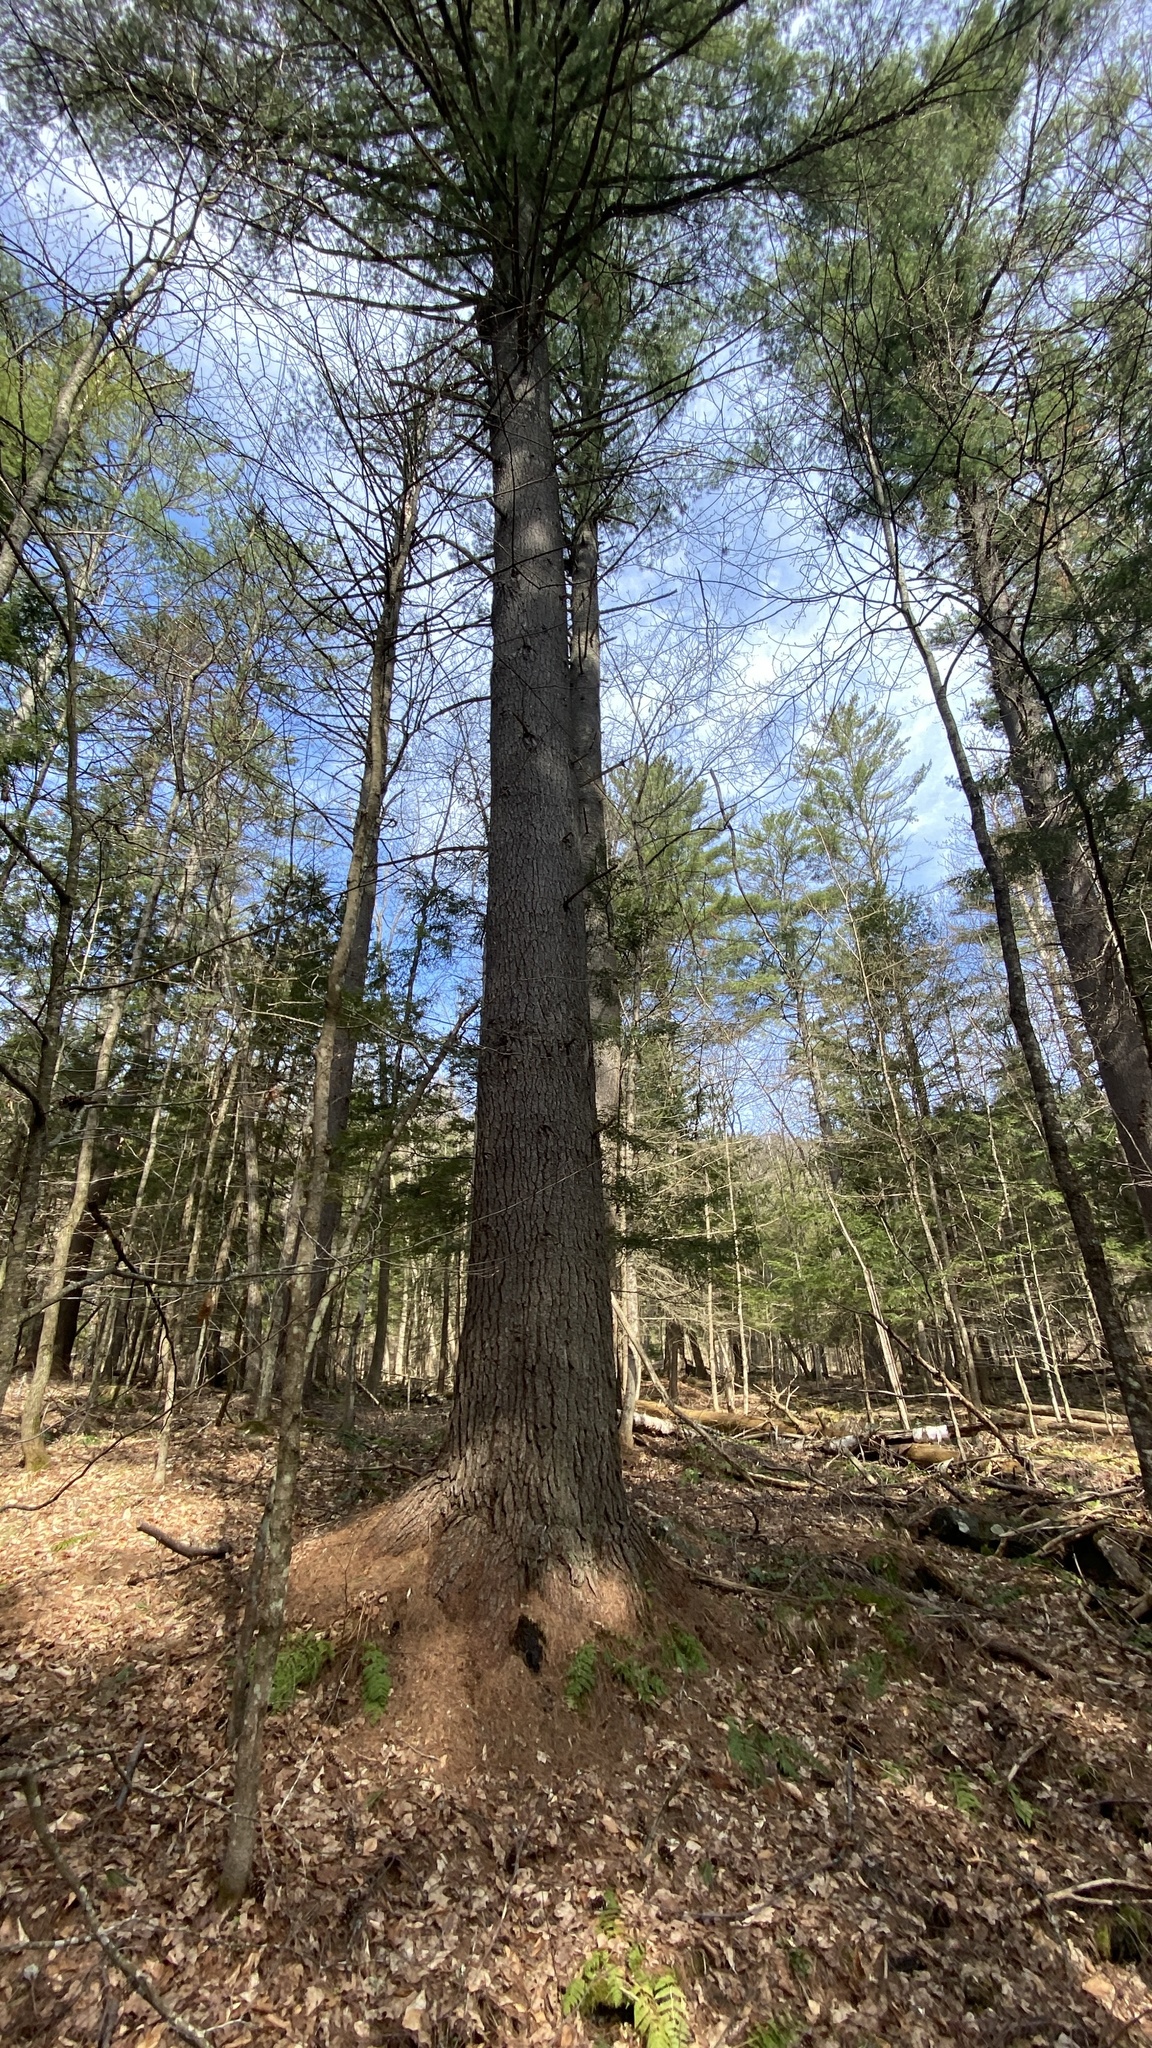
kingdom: Plantae
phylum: Tracheophyta
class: Pinopsida
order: Pinales
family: Pinaceae
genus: Pinus
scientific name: Pinus strobus
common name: Weymouth pine
